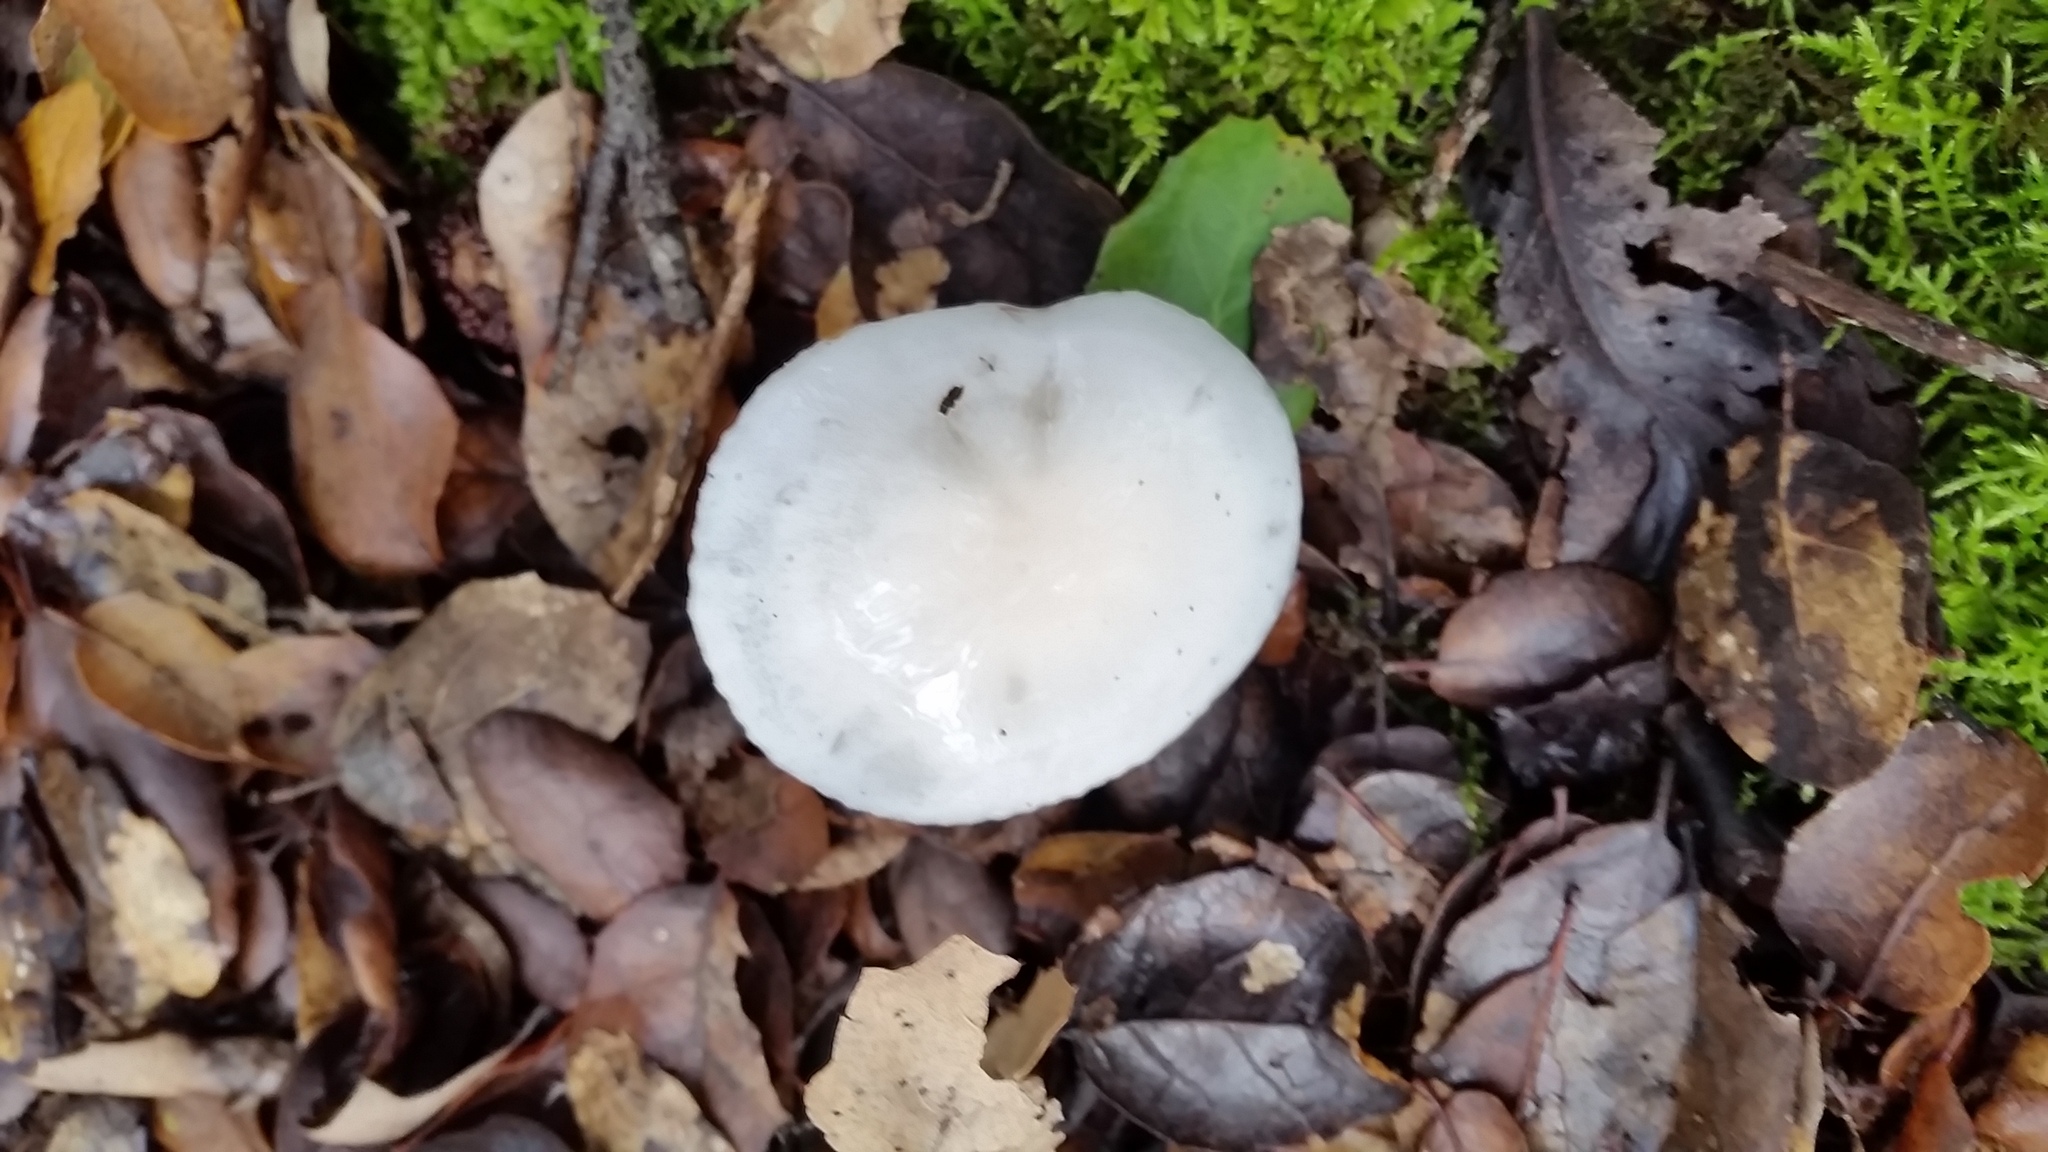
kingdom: Fungi
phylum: Basidiomycota
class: Agaricomycetes
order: Agaricales
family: Hygrophoraceae
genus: Hygrophorus
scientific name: Hygrophorus eburneus
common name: Ivory wax-cap
